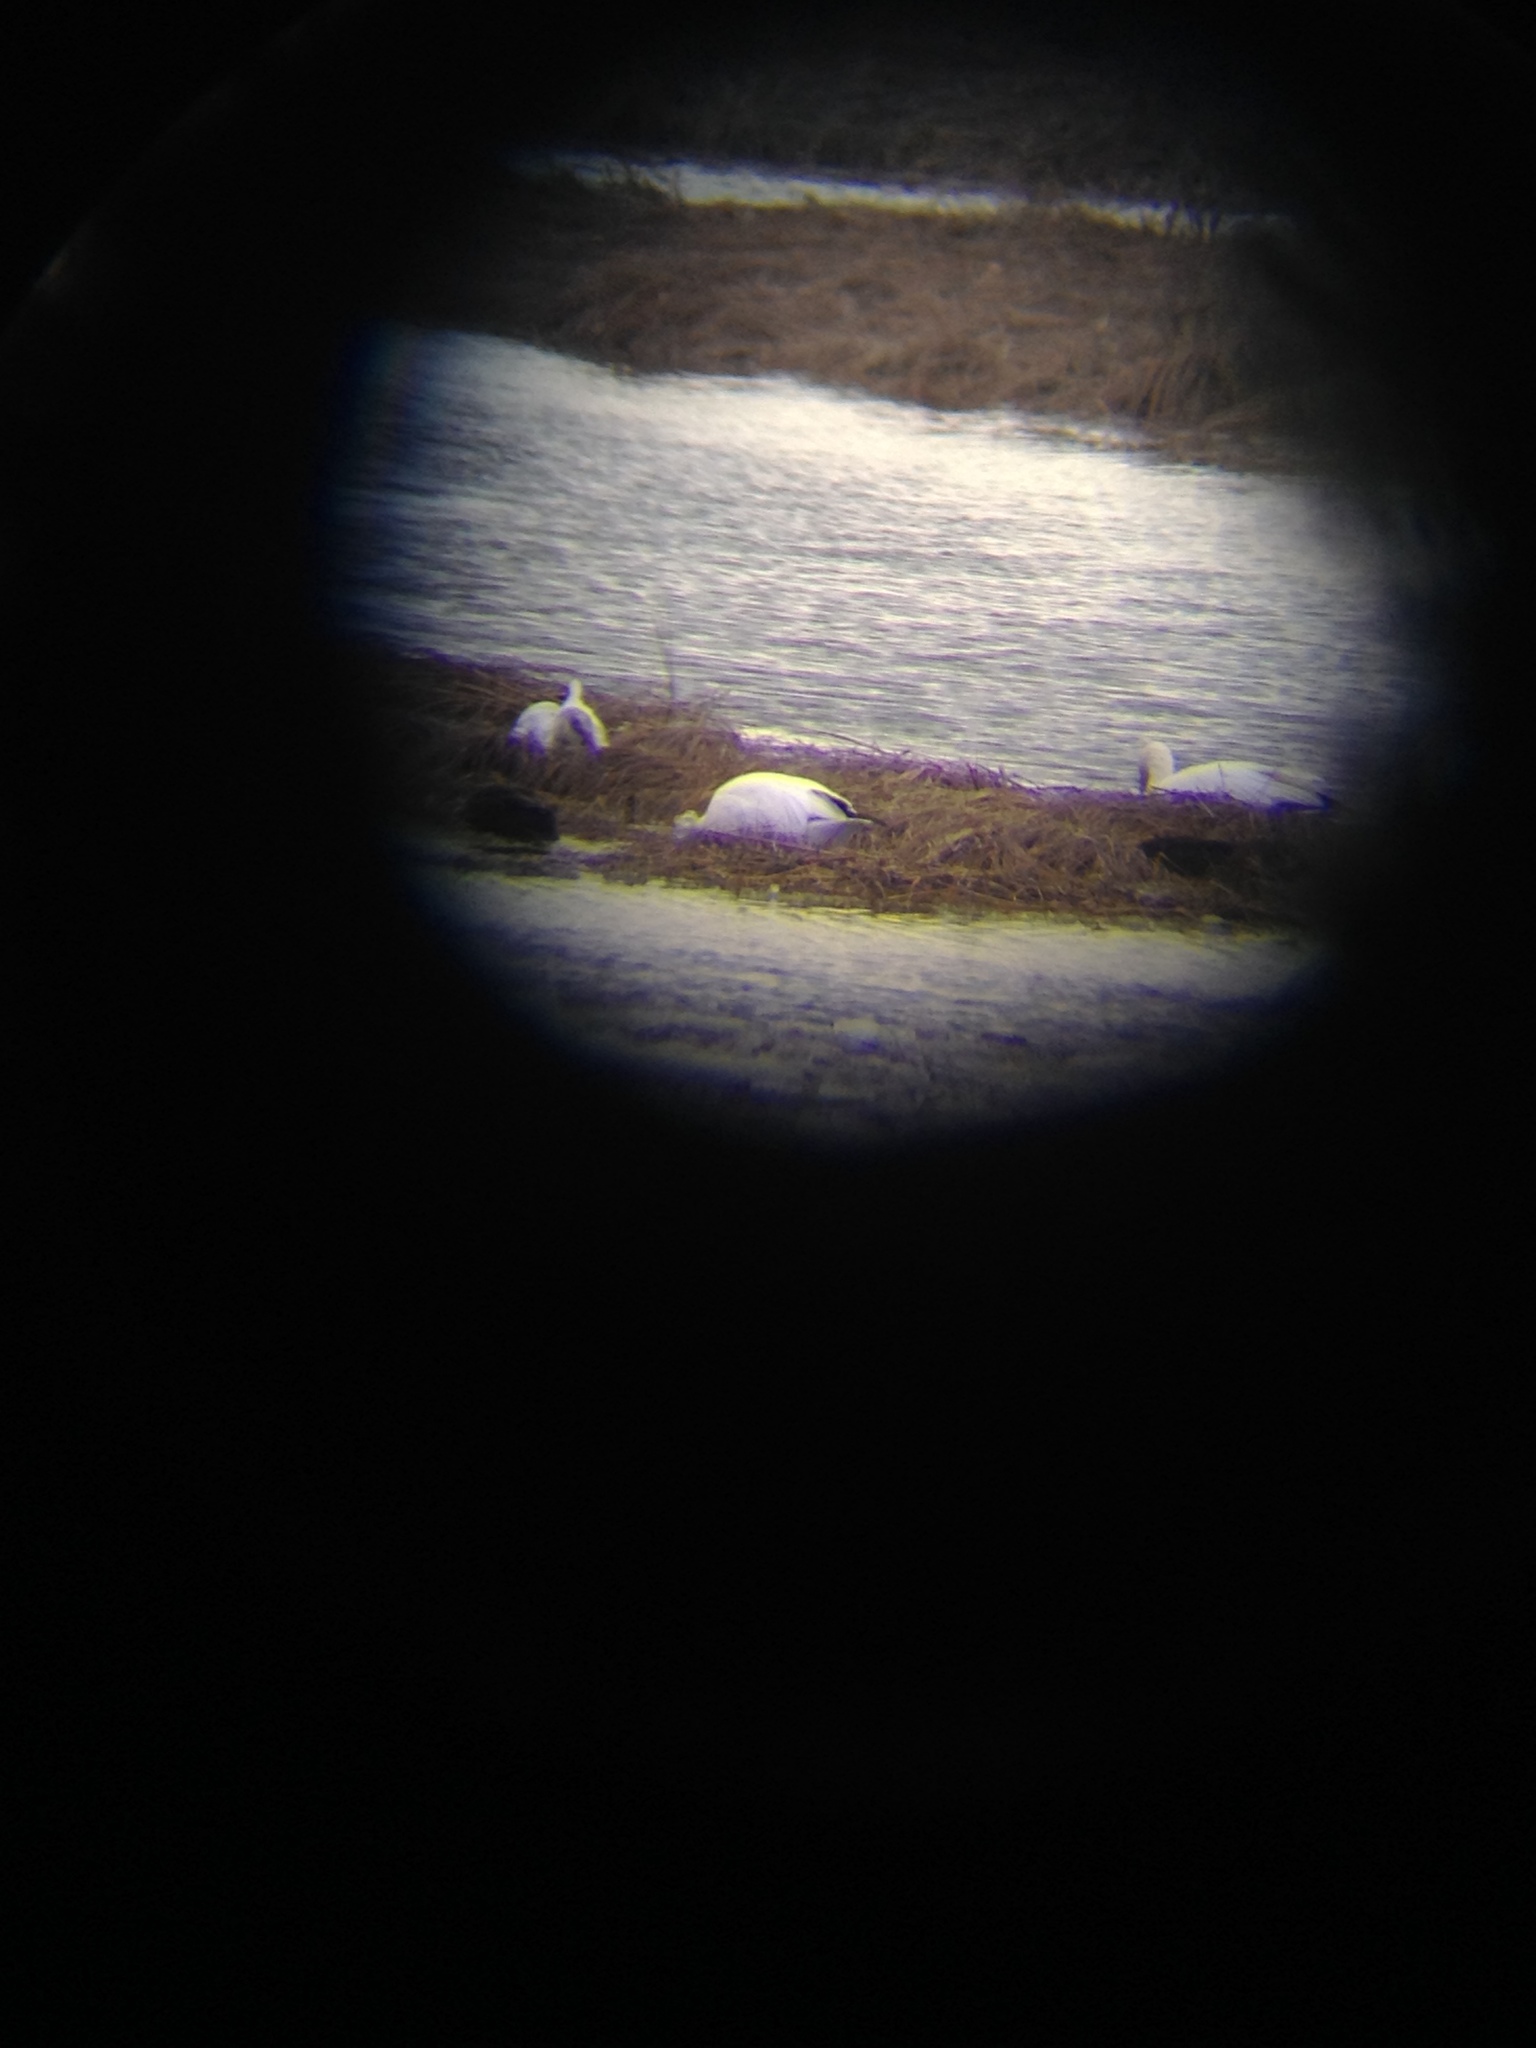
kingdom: Animalia
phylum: Chordata
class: Aves
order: Anseriformes
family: Anatidae
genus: Anser
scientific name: Anser caerulescens
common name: Snow goose
